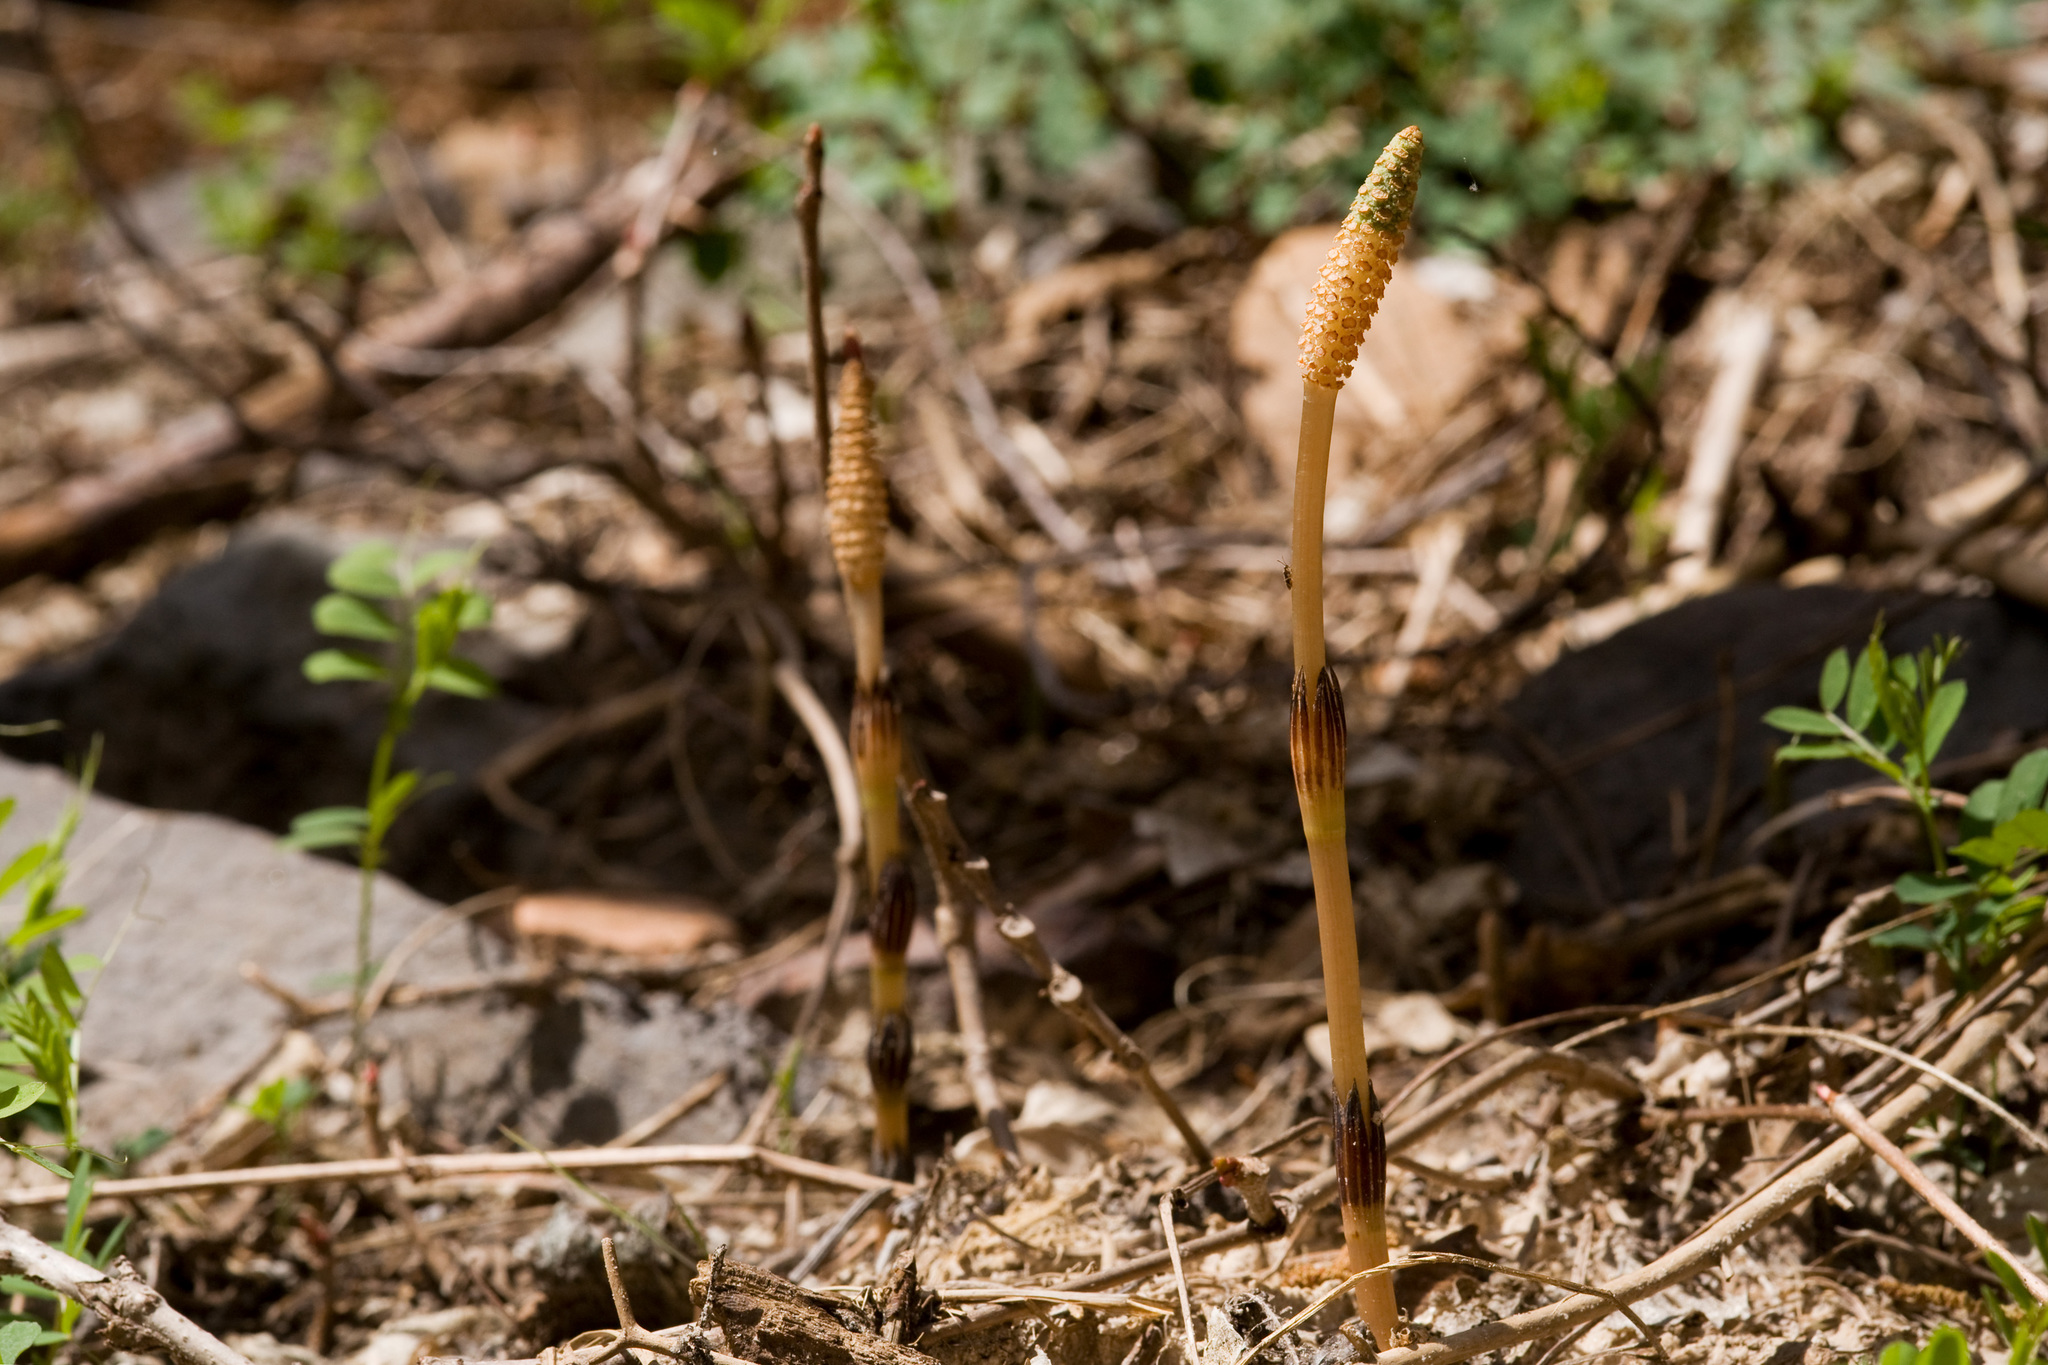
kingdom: Plantae
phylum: Tracheophyta
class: Polypodiopsida
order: Equisetales
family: Equisetaceae
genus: Equisetum
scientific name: Equisetum arvense
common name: Field horsetail
